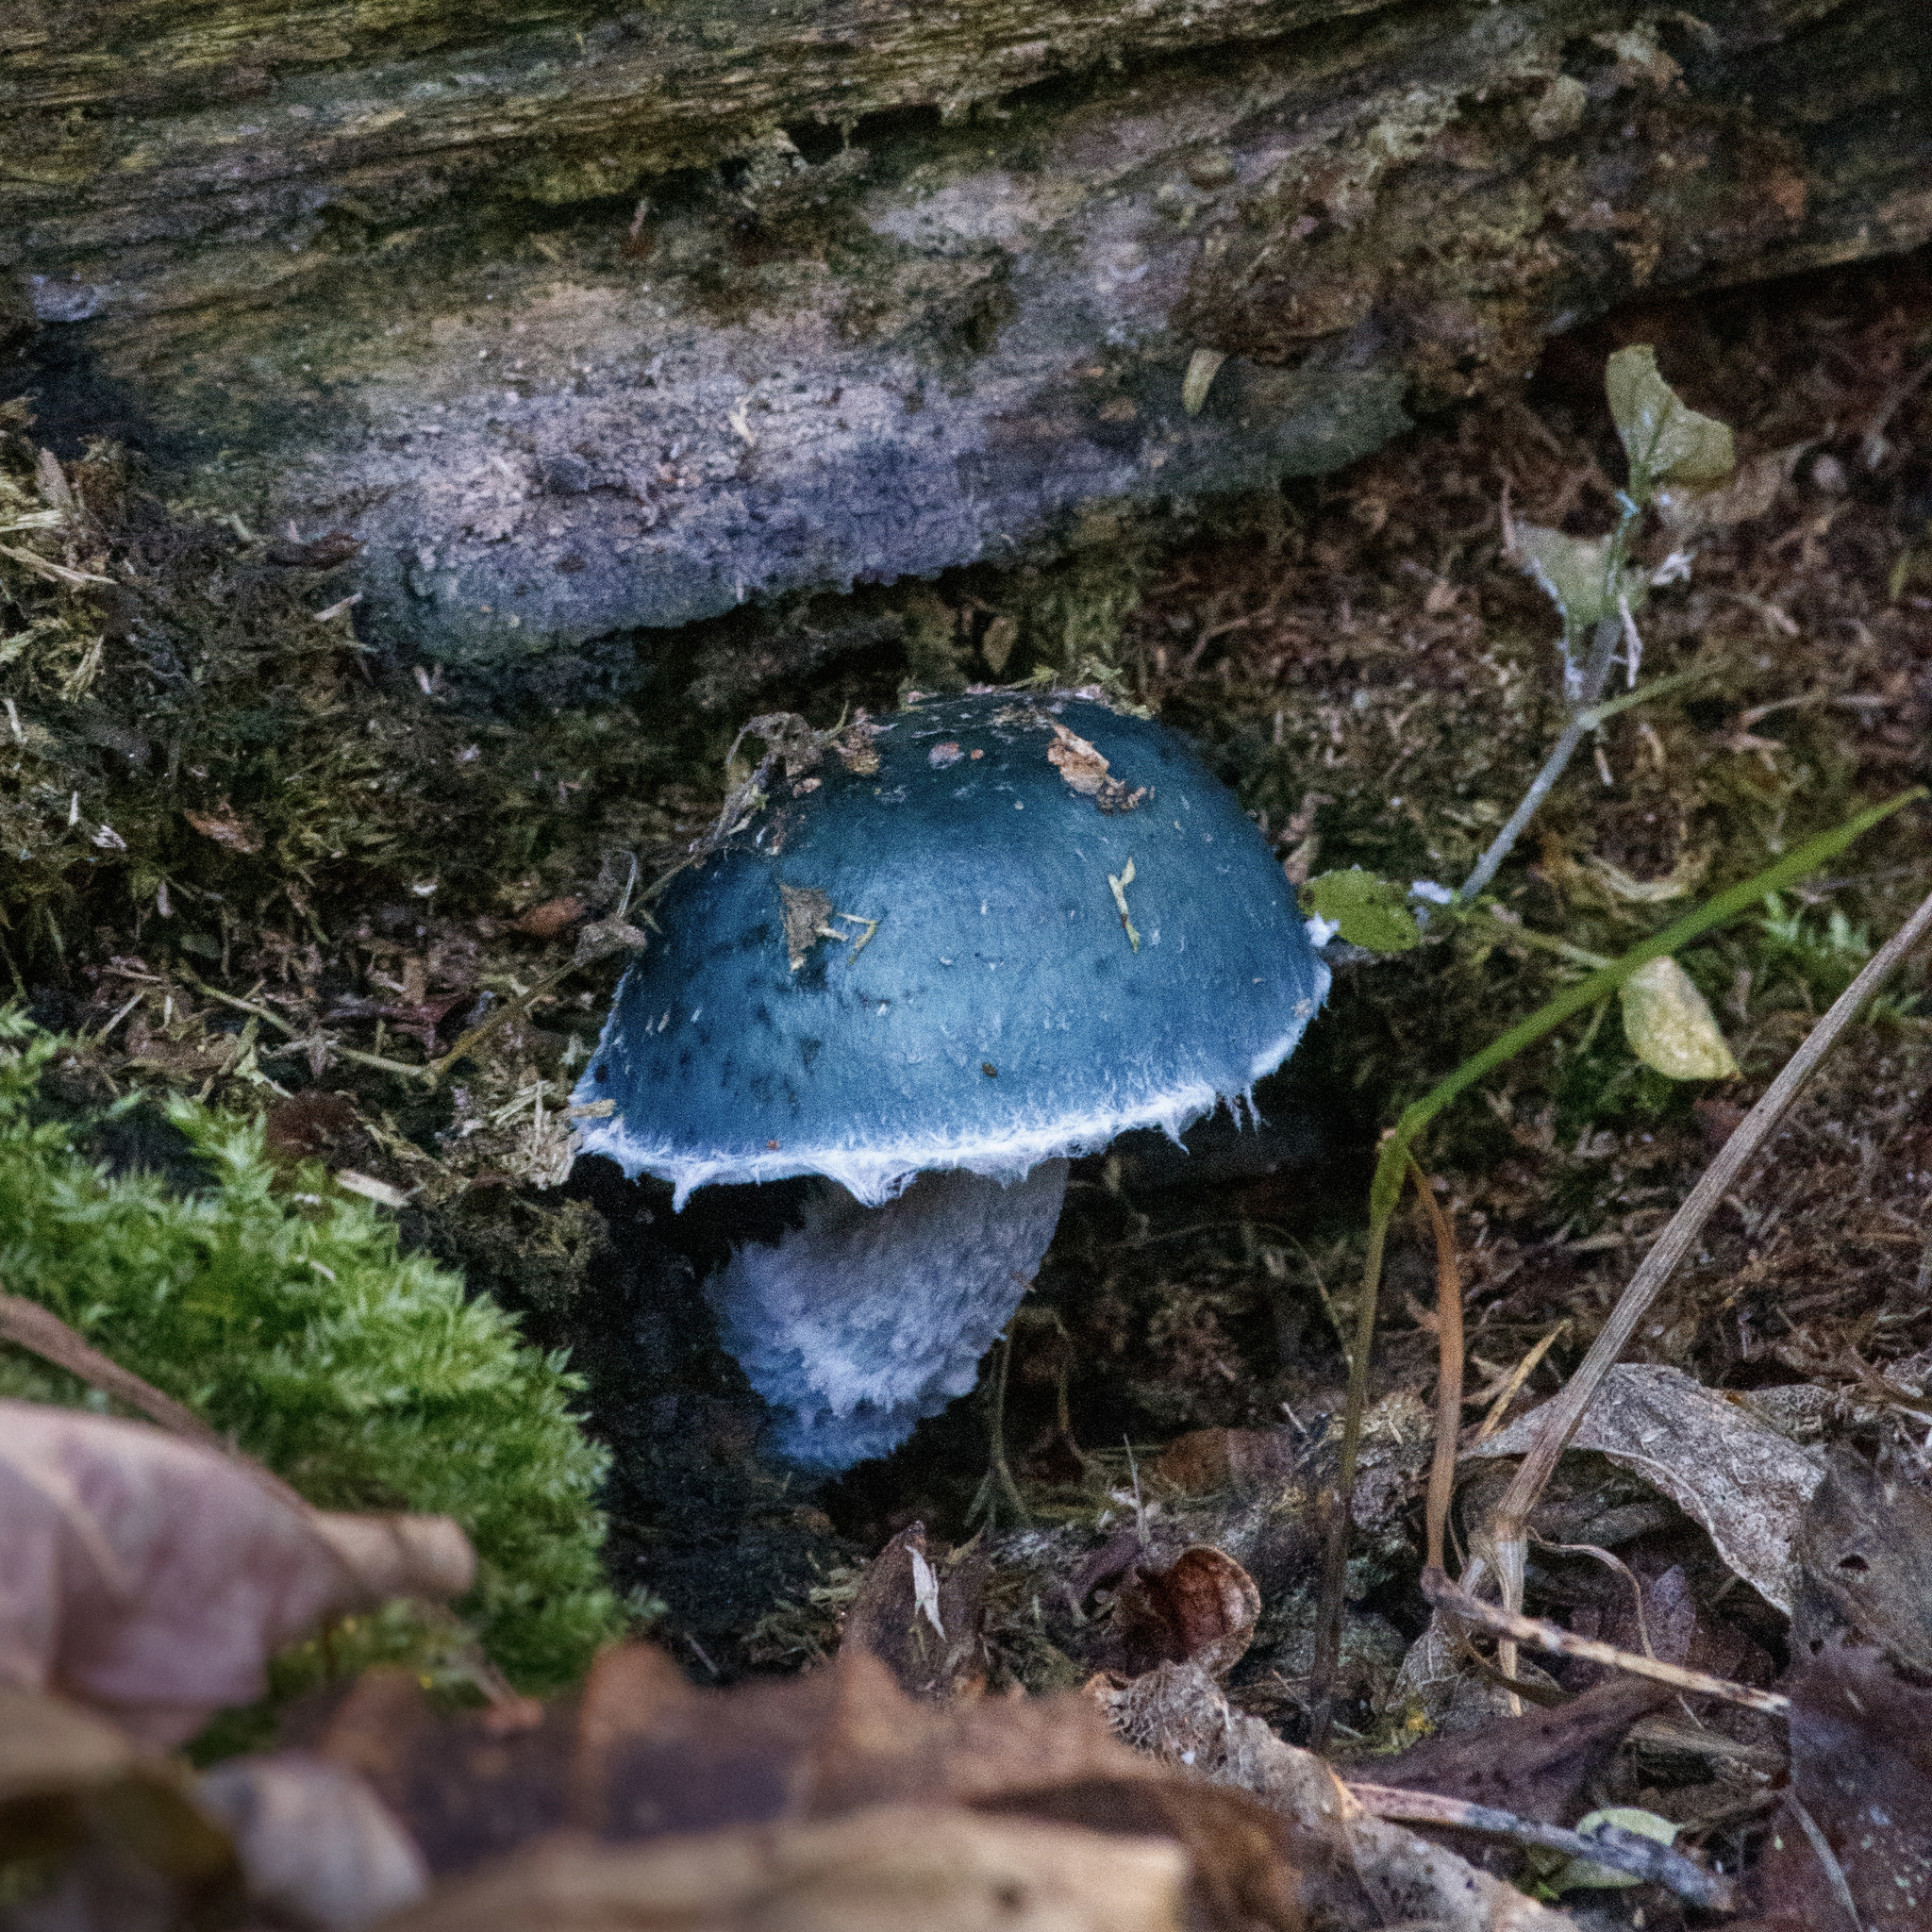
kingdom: Fungi
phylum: Basidiomycota
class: Agaricomycetes
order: Agaricales
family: Strophariaceae
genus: Stropharia
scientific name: Stropharia aeruginosa
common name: Verdigris roundhead
